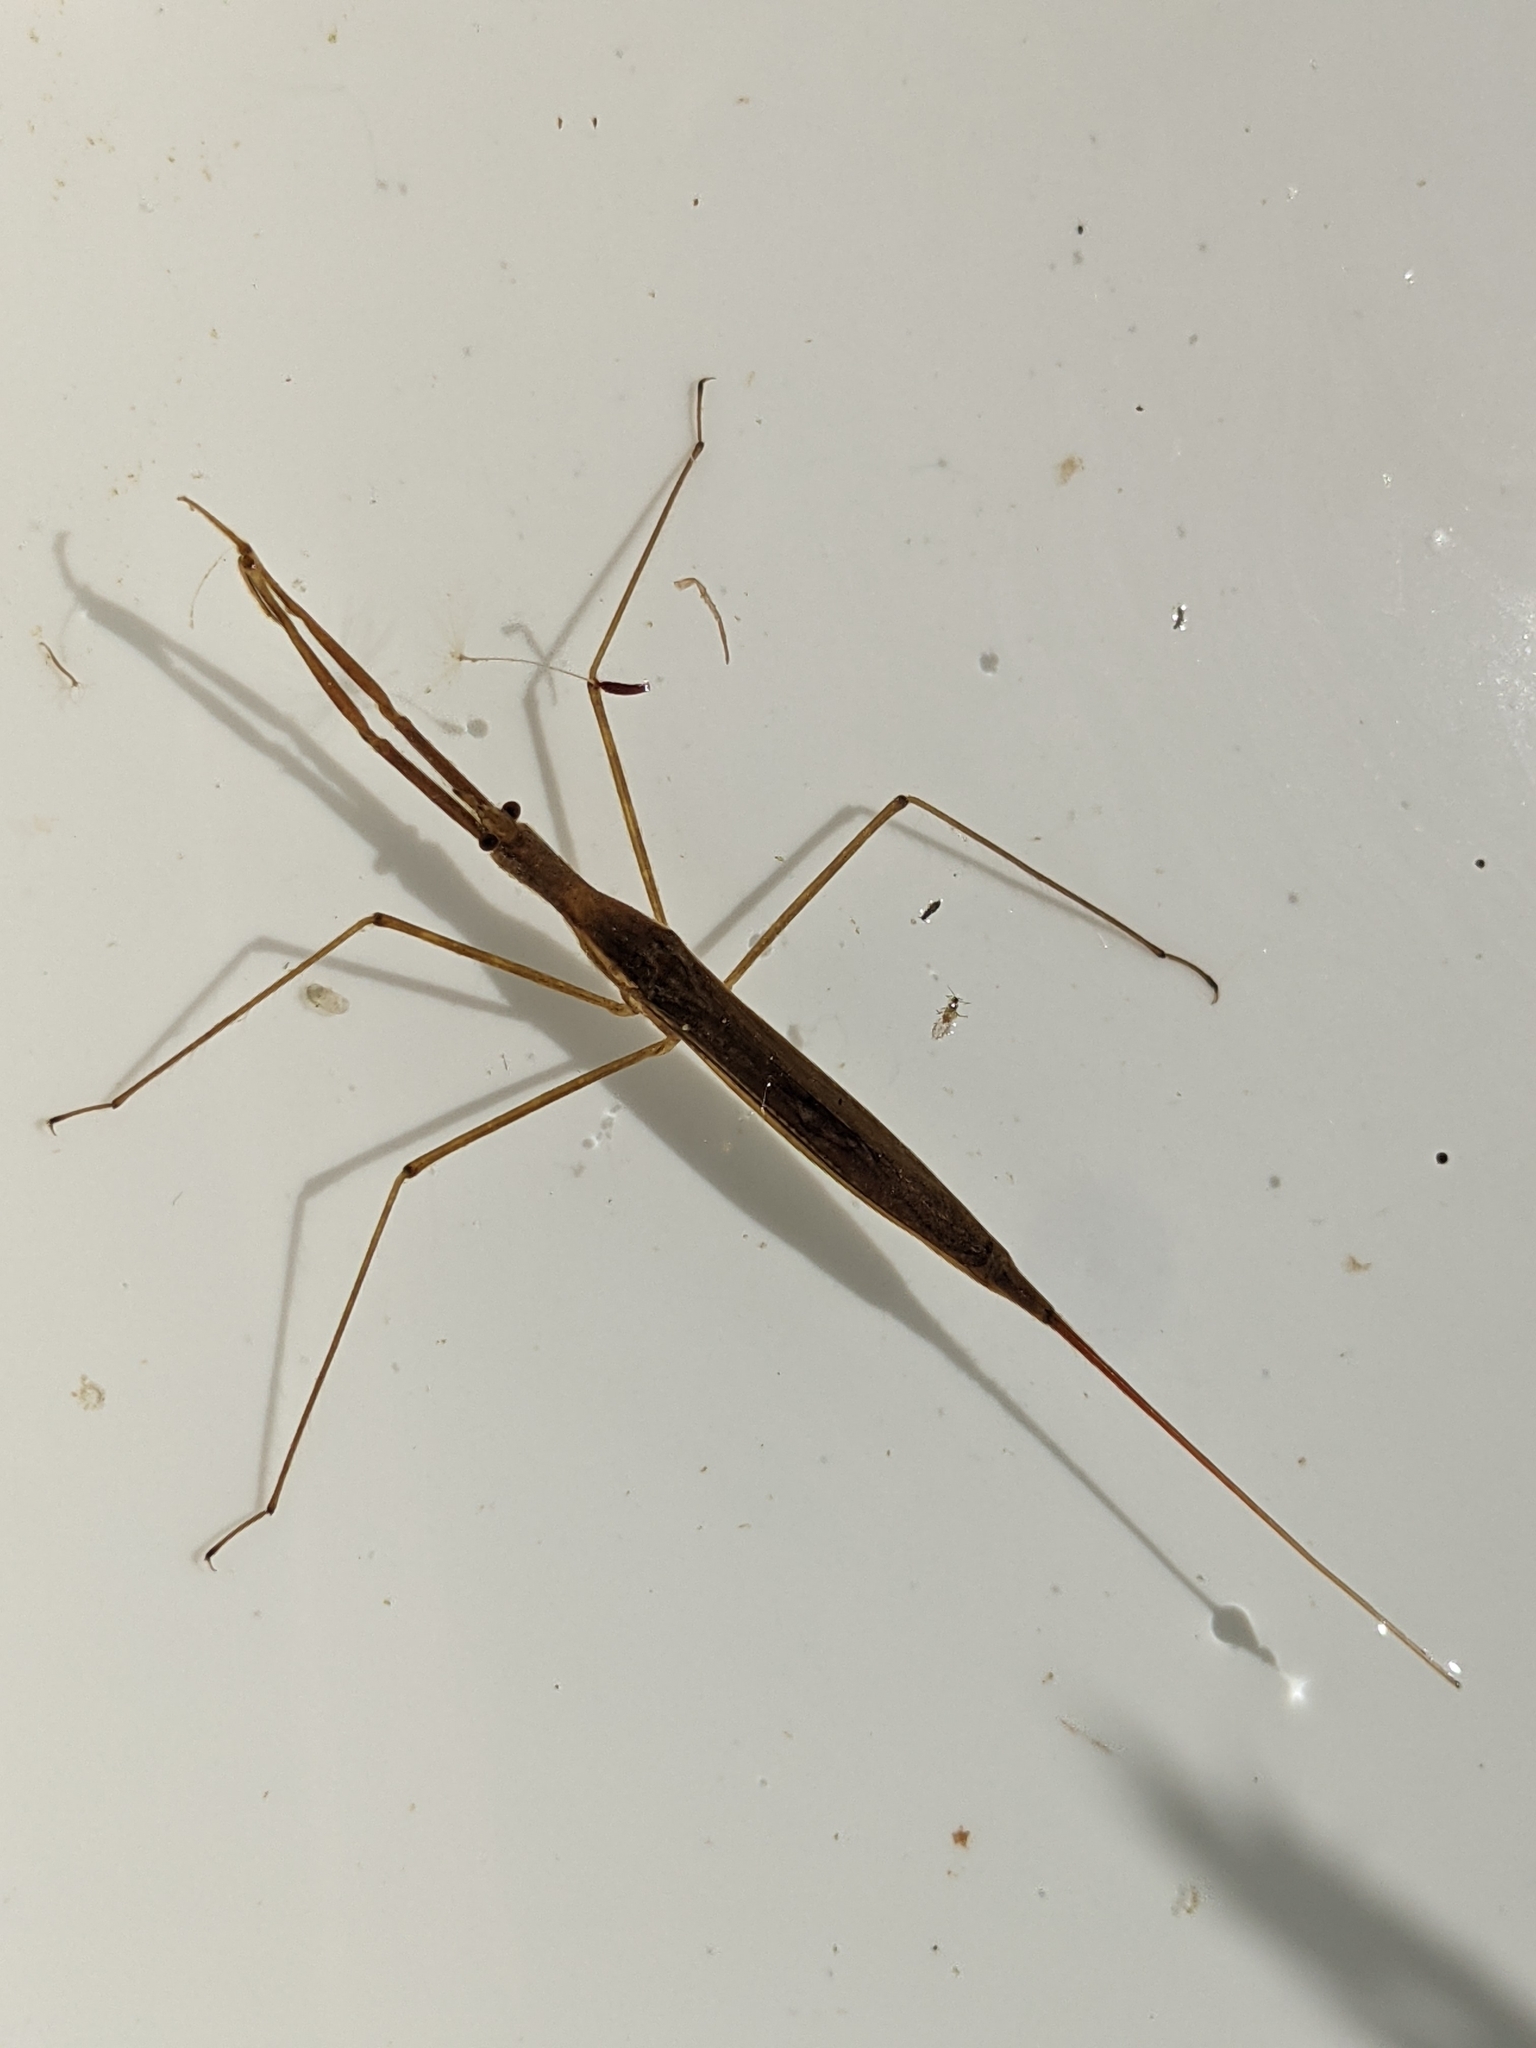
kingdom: Animalia
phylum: Arthropoda
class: Insecta
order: Hemiptera
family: Nepidae
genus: Ranatra
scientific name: Ranatra linearis
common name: Water stick insect
